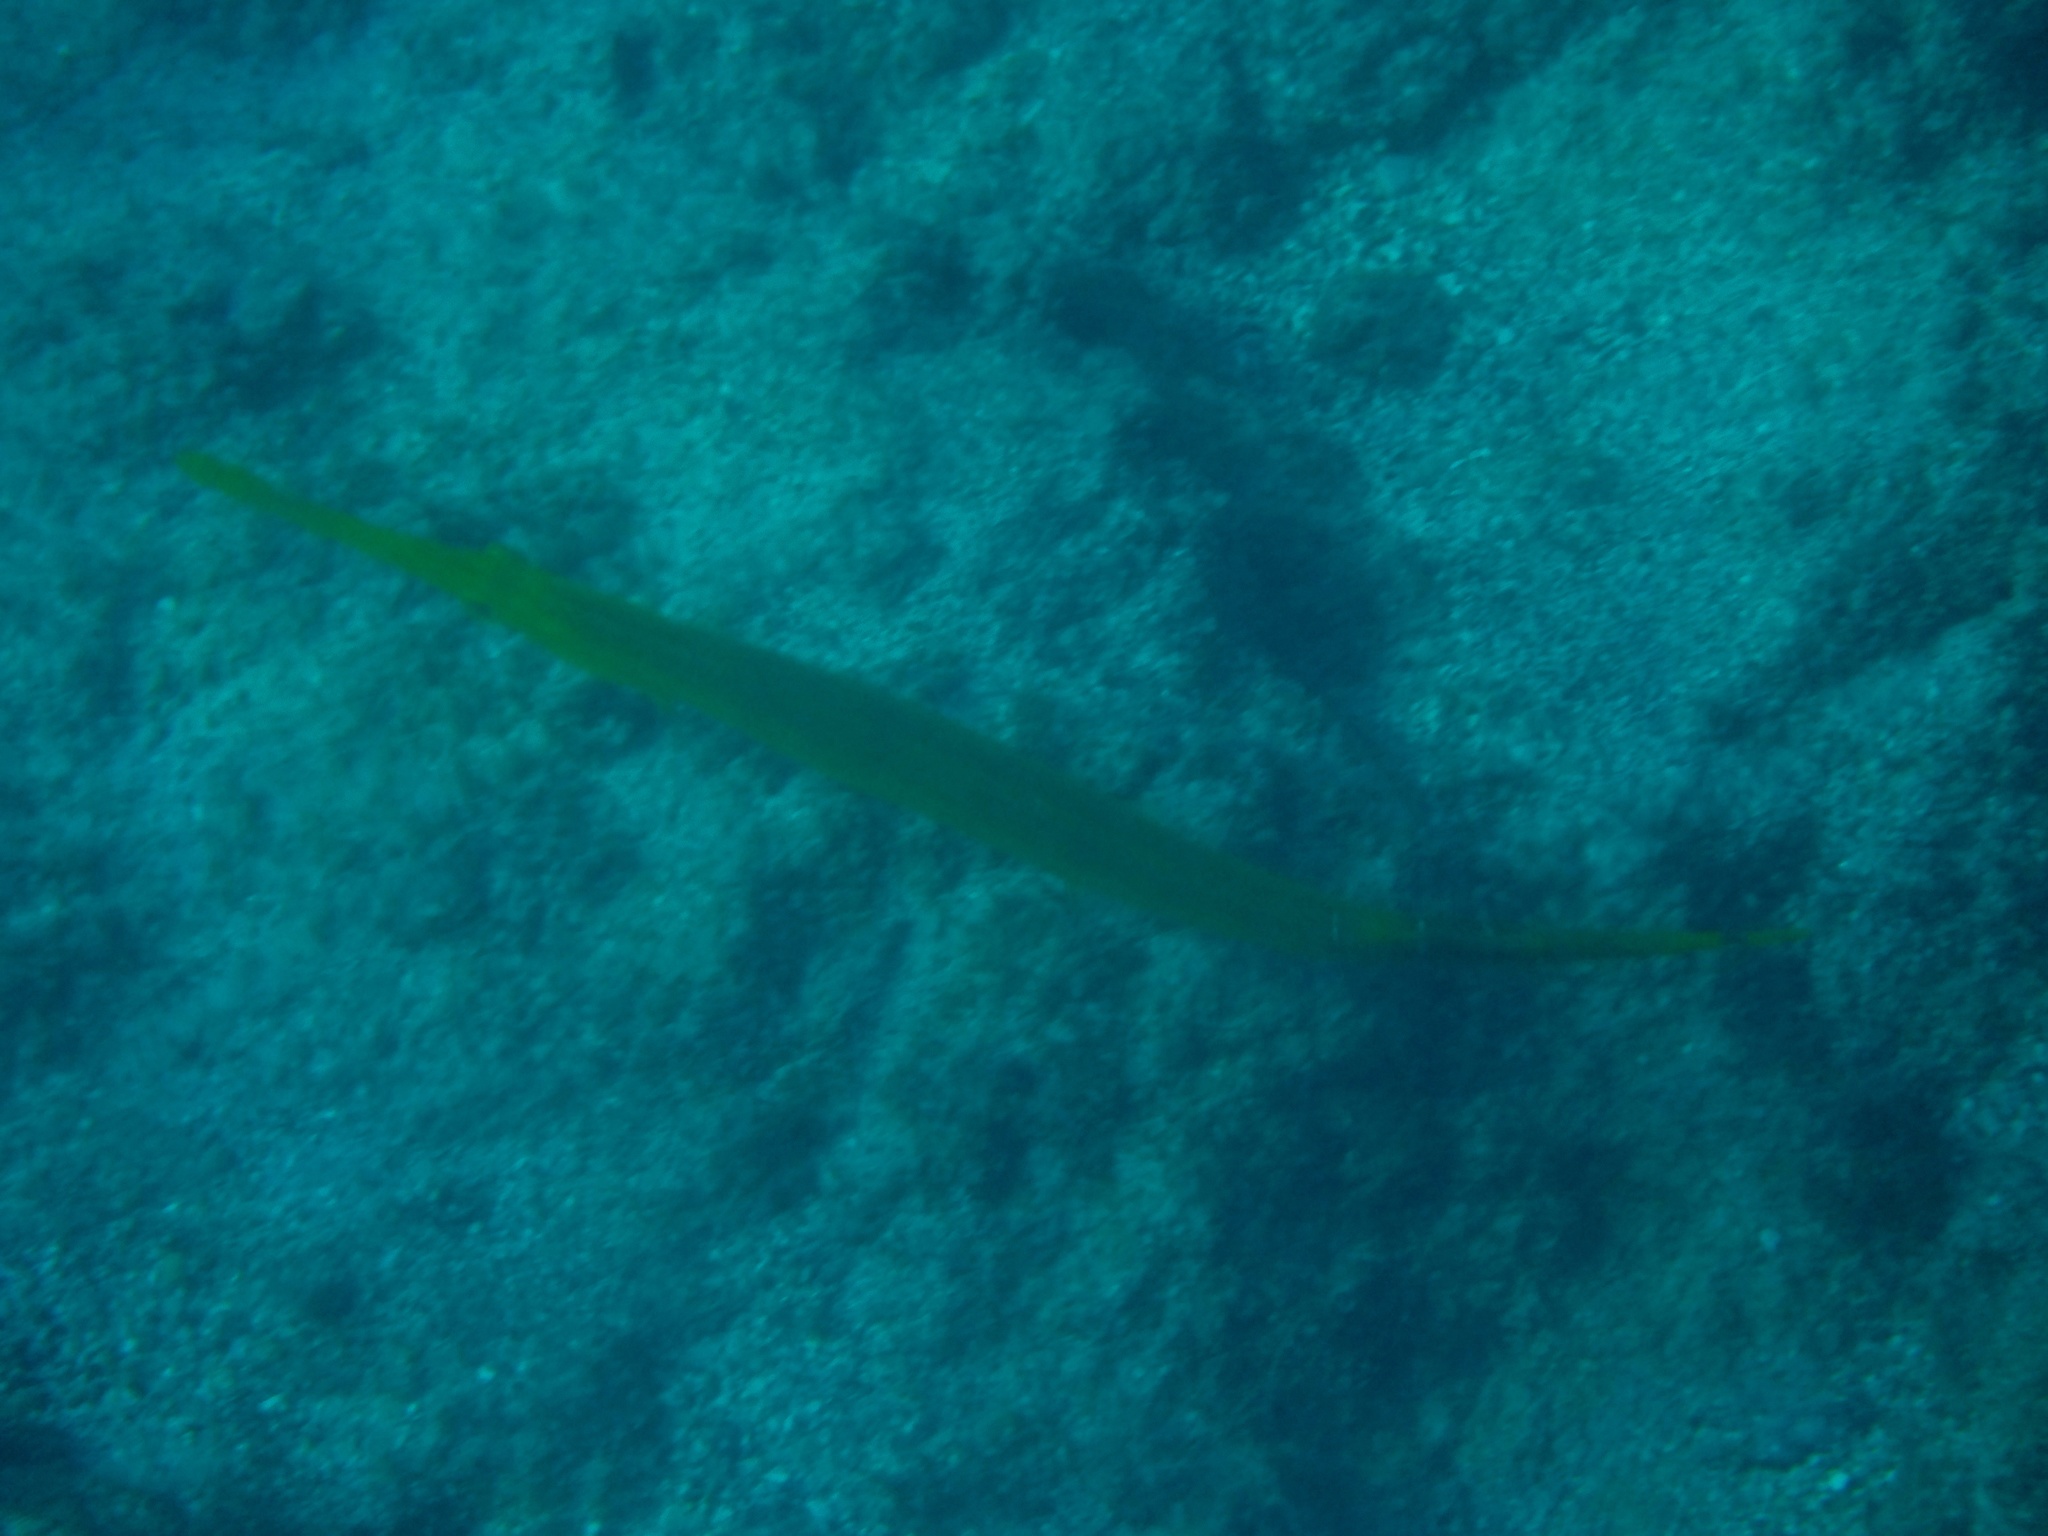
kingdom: Animalia
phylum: Chordata
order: Syngnathiformes
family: Aulostomidae
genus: Aulostomus
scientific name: Aulostomus chinensis
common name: Chinese trumpetfish
